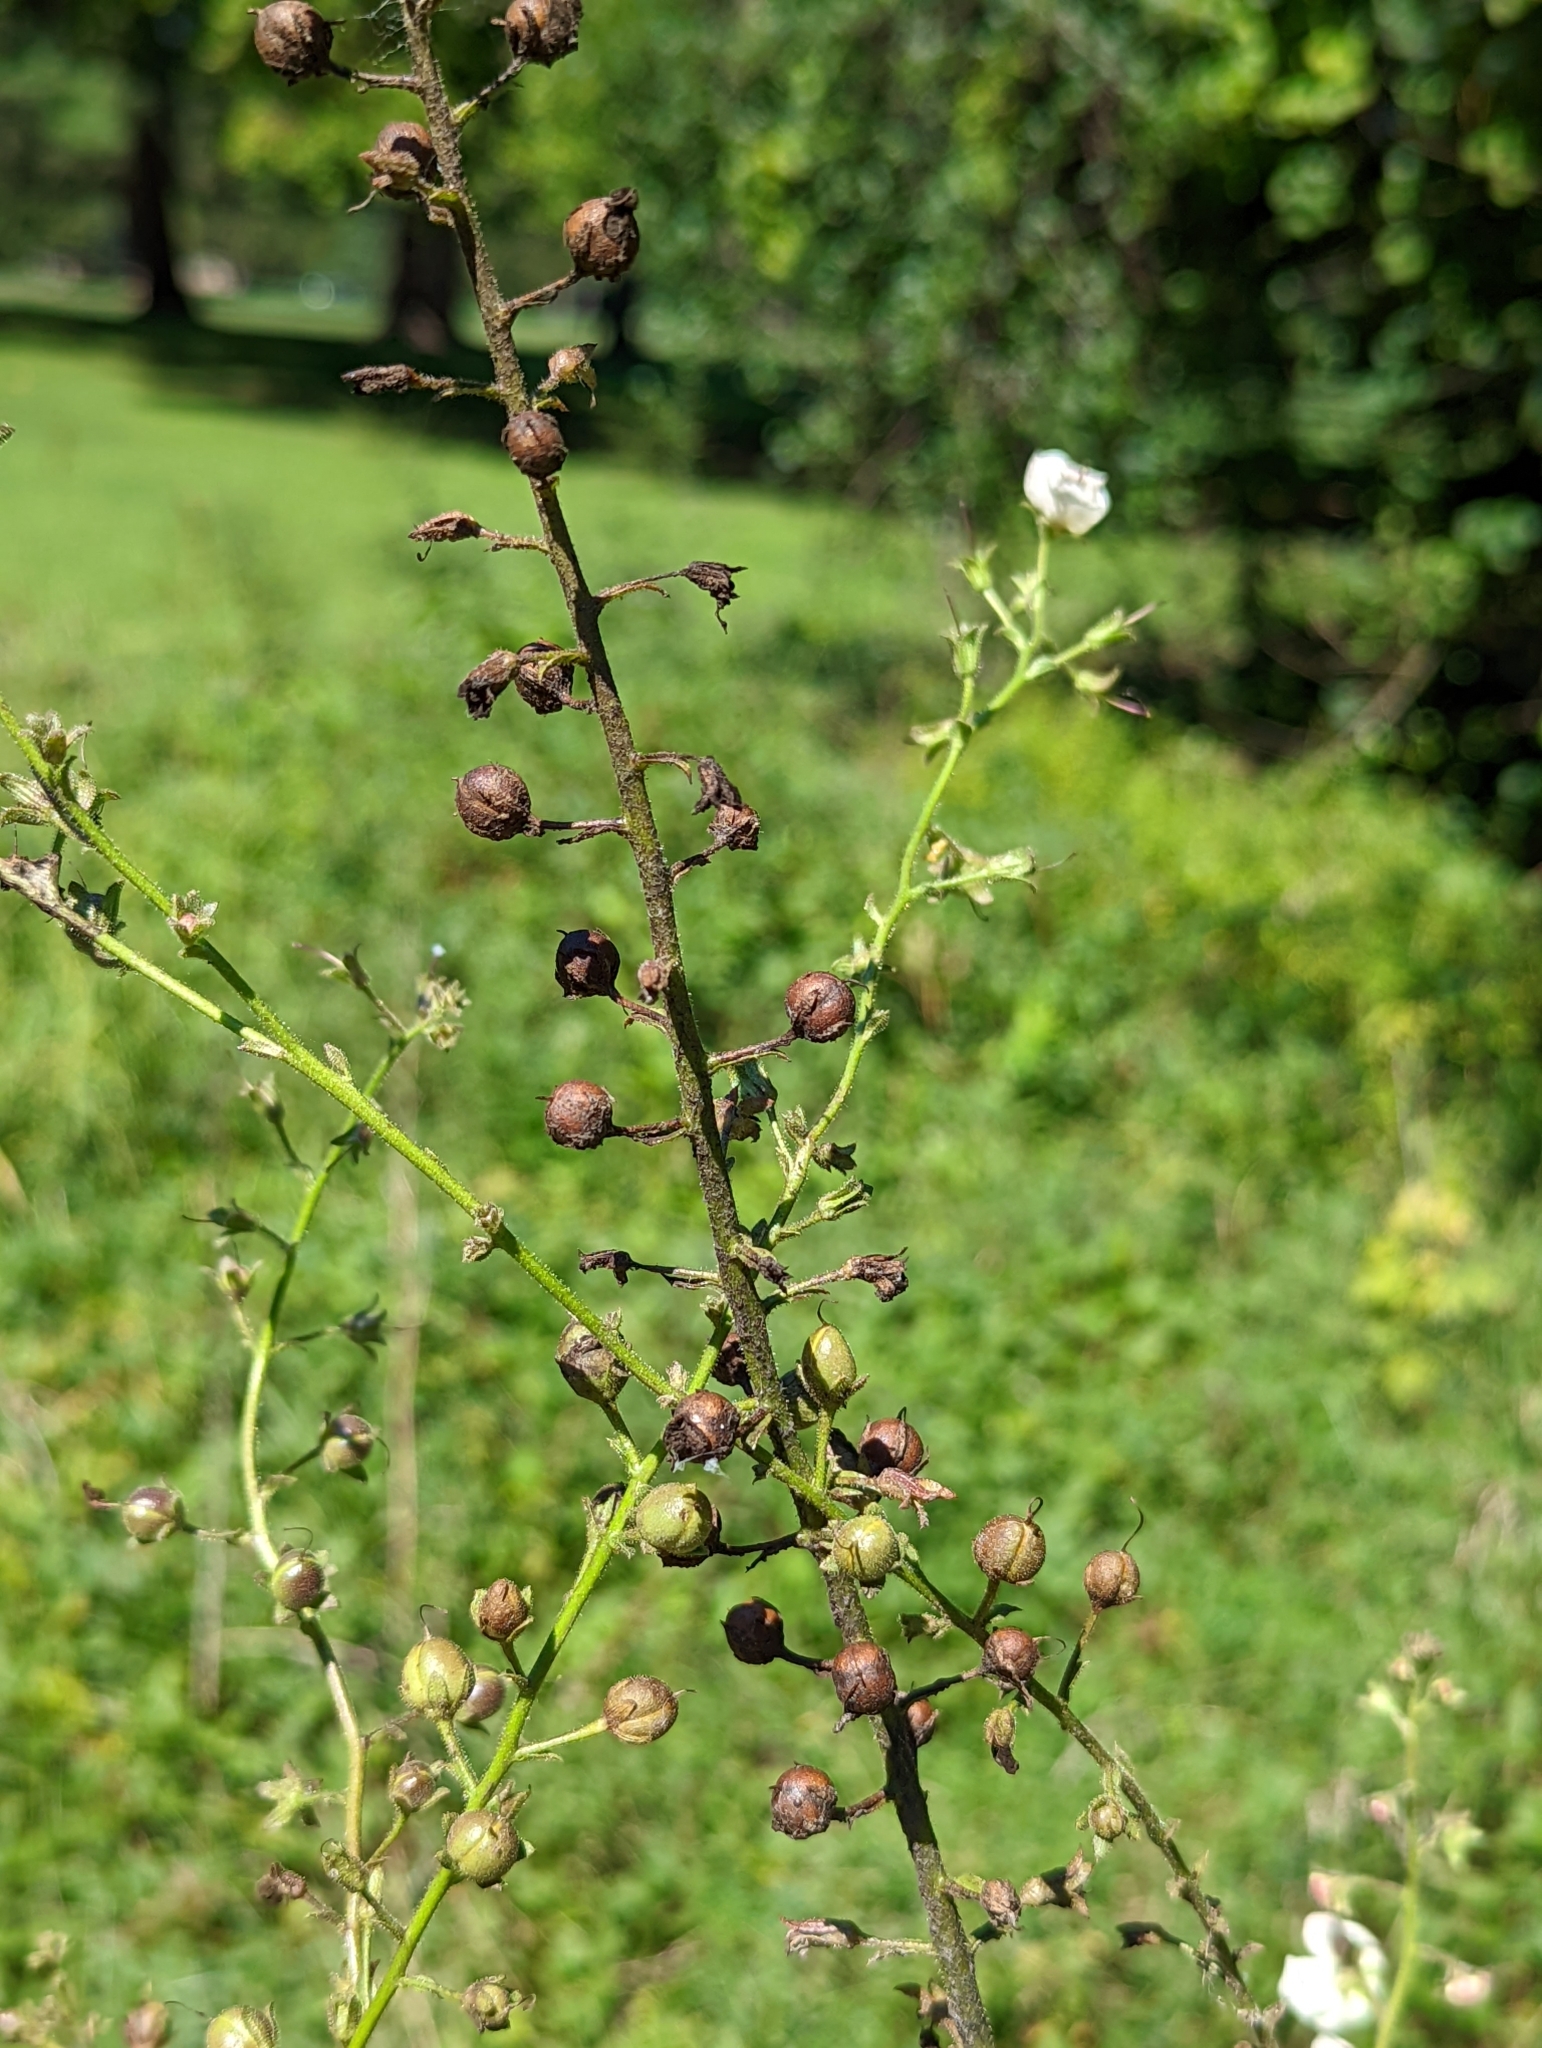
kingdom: Plantae
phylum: Tracheophyta
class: Magnoliopsida
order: Lamiales
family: Scrophulariaceae
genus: Verbascum
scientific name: Verbascum blattaria
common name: Moth mullein
